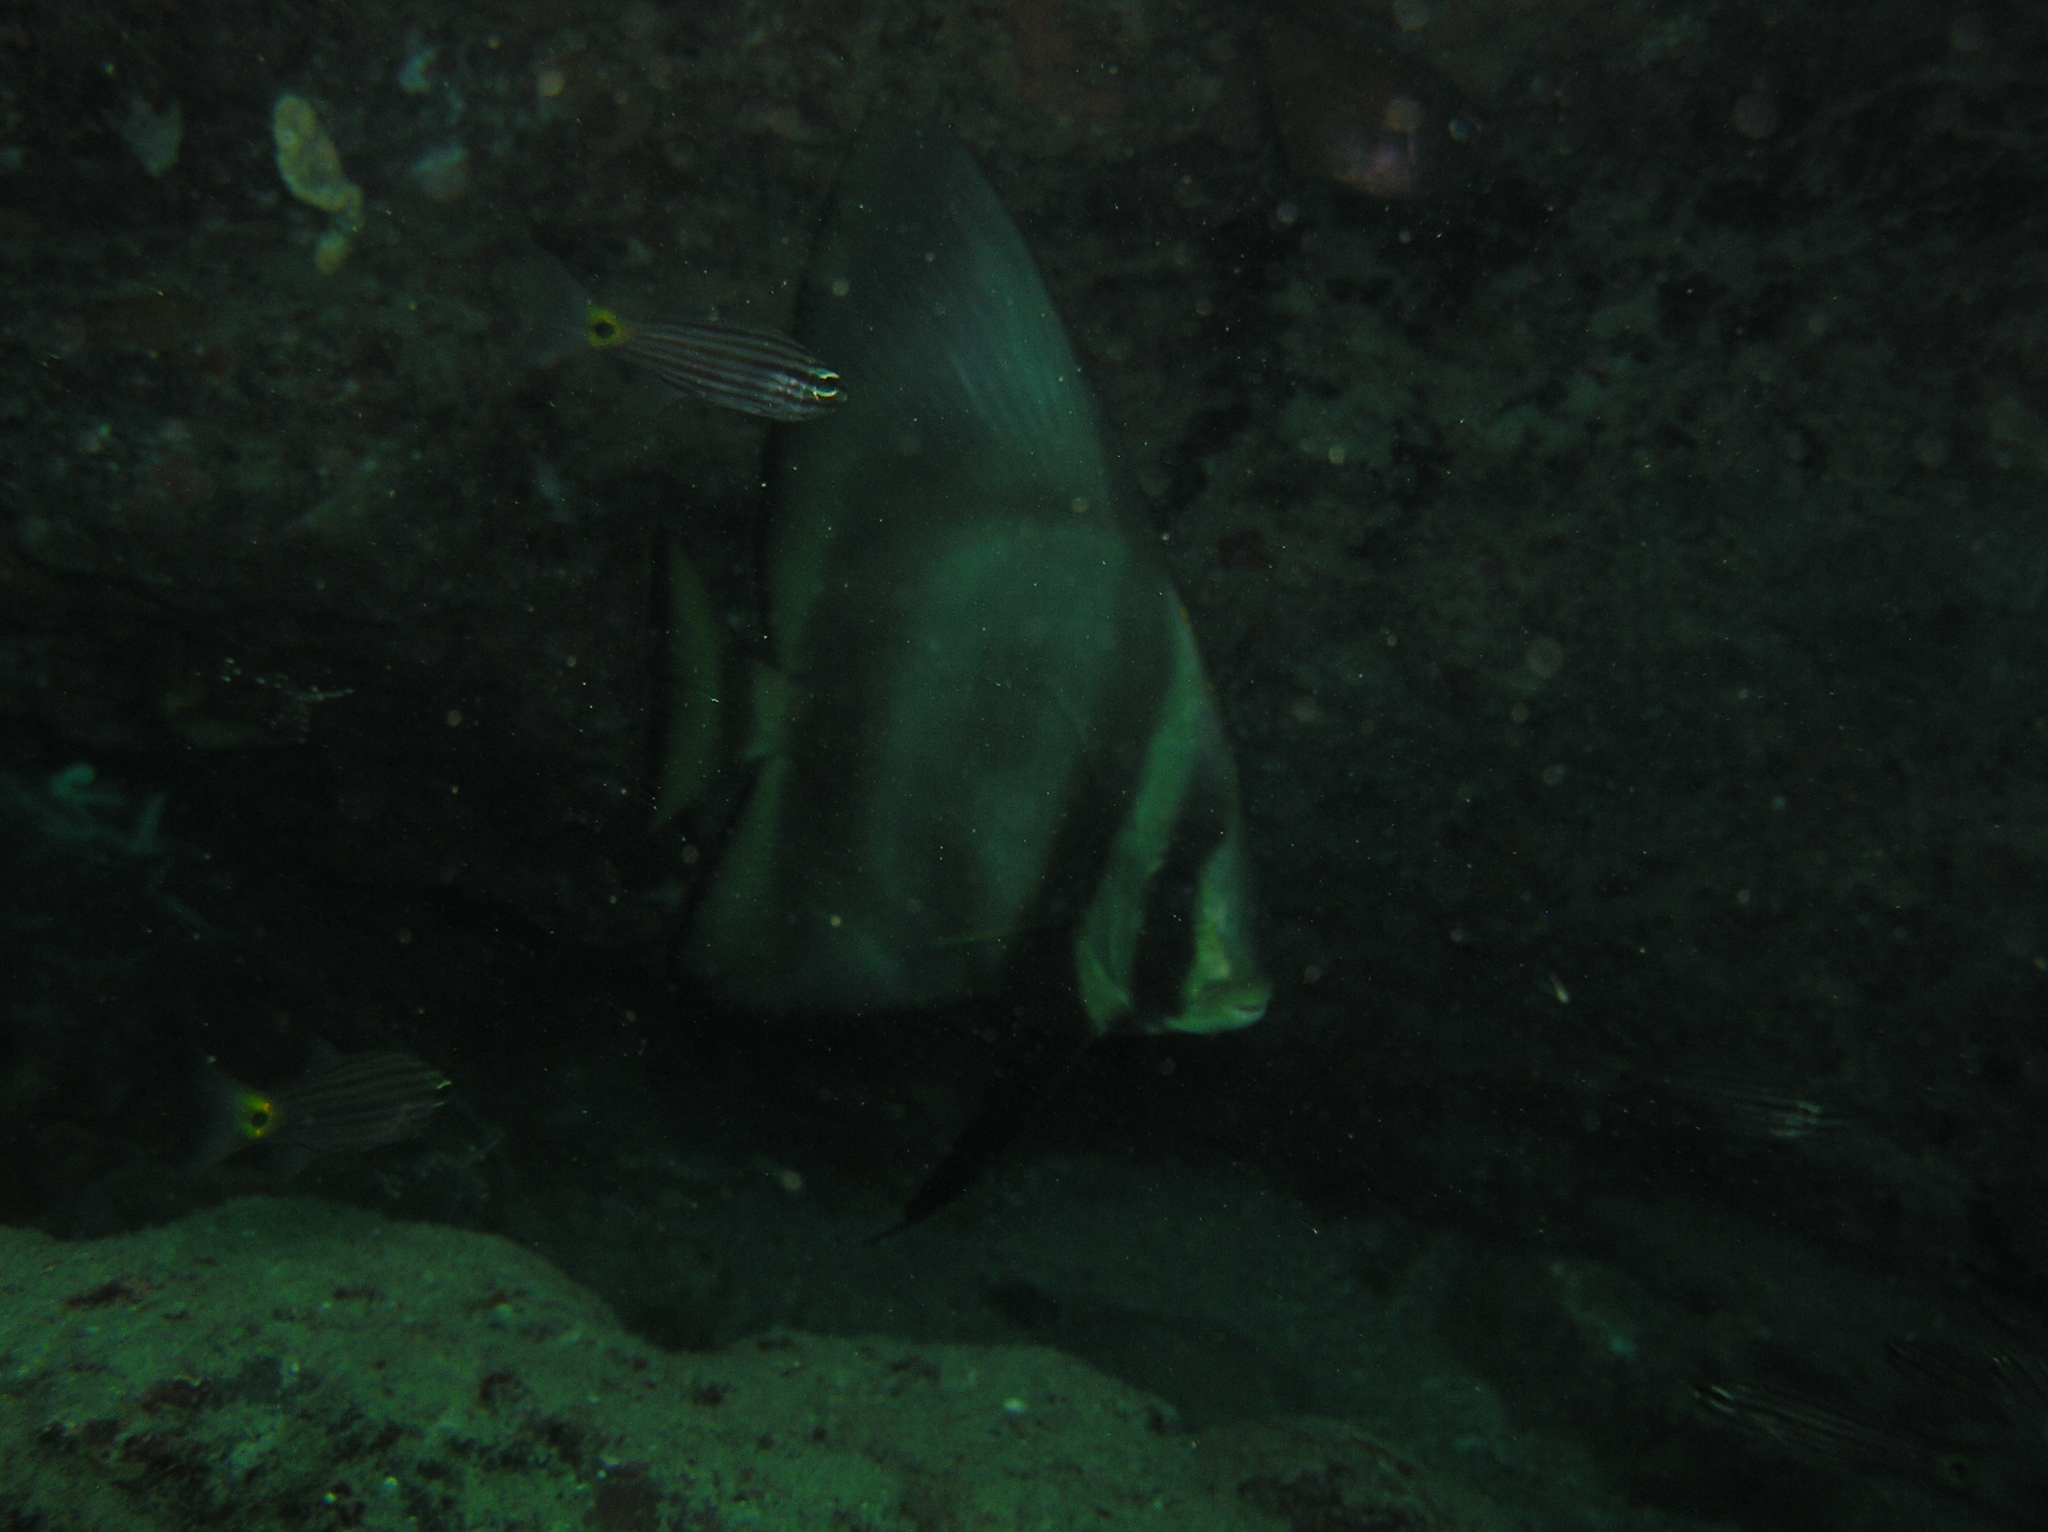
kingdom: Animalia
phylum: Chordata
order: Perciformes
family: Apogonidae
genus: Cheilodipterus
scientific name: Cheilodipterus artus
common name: Wolf cardinal
